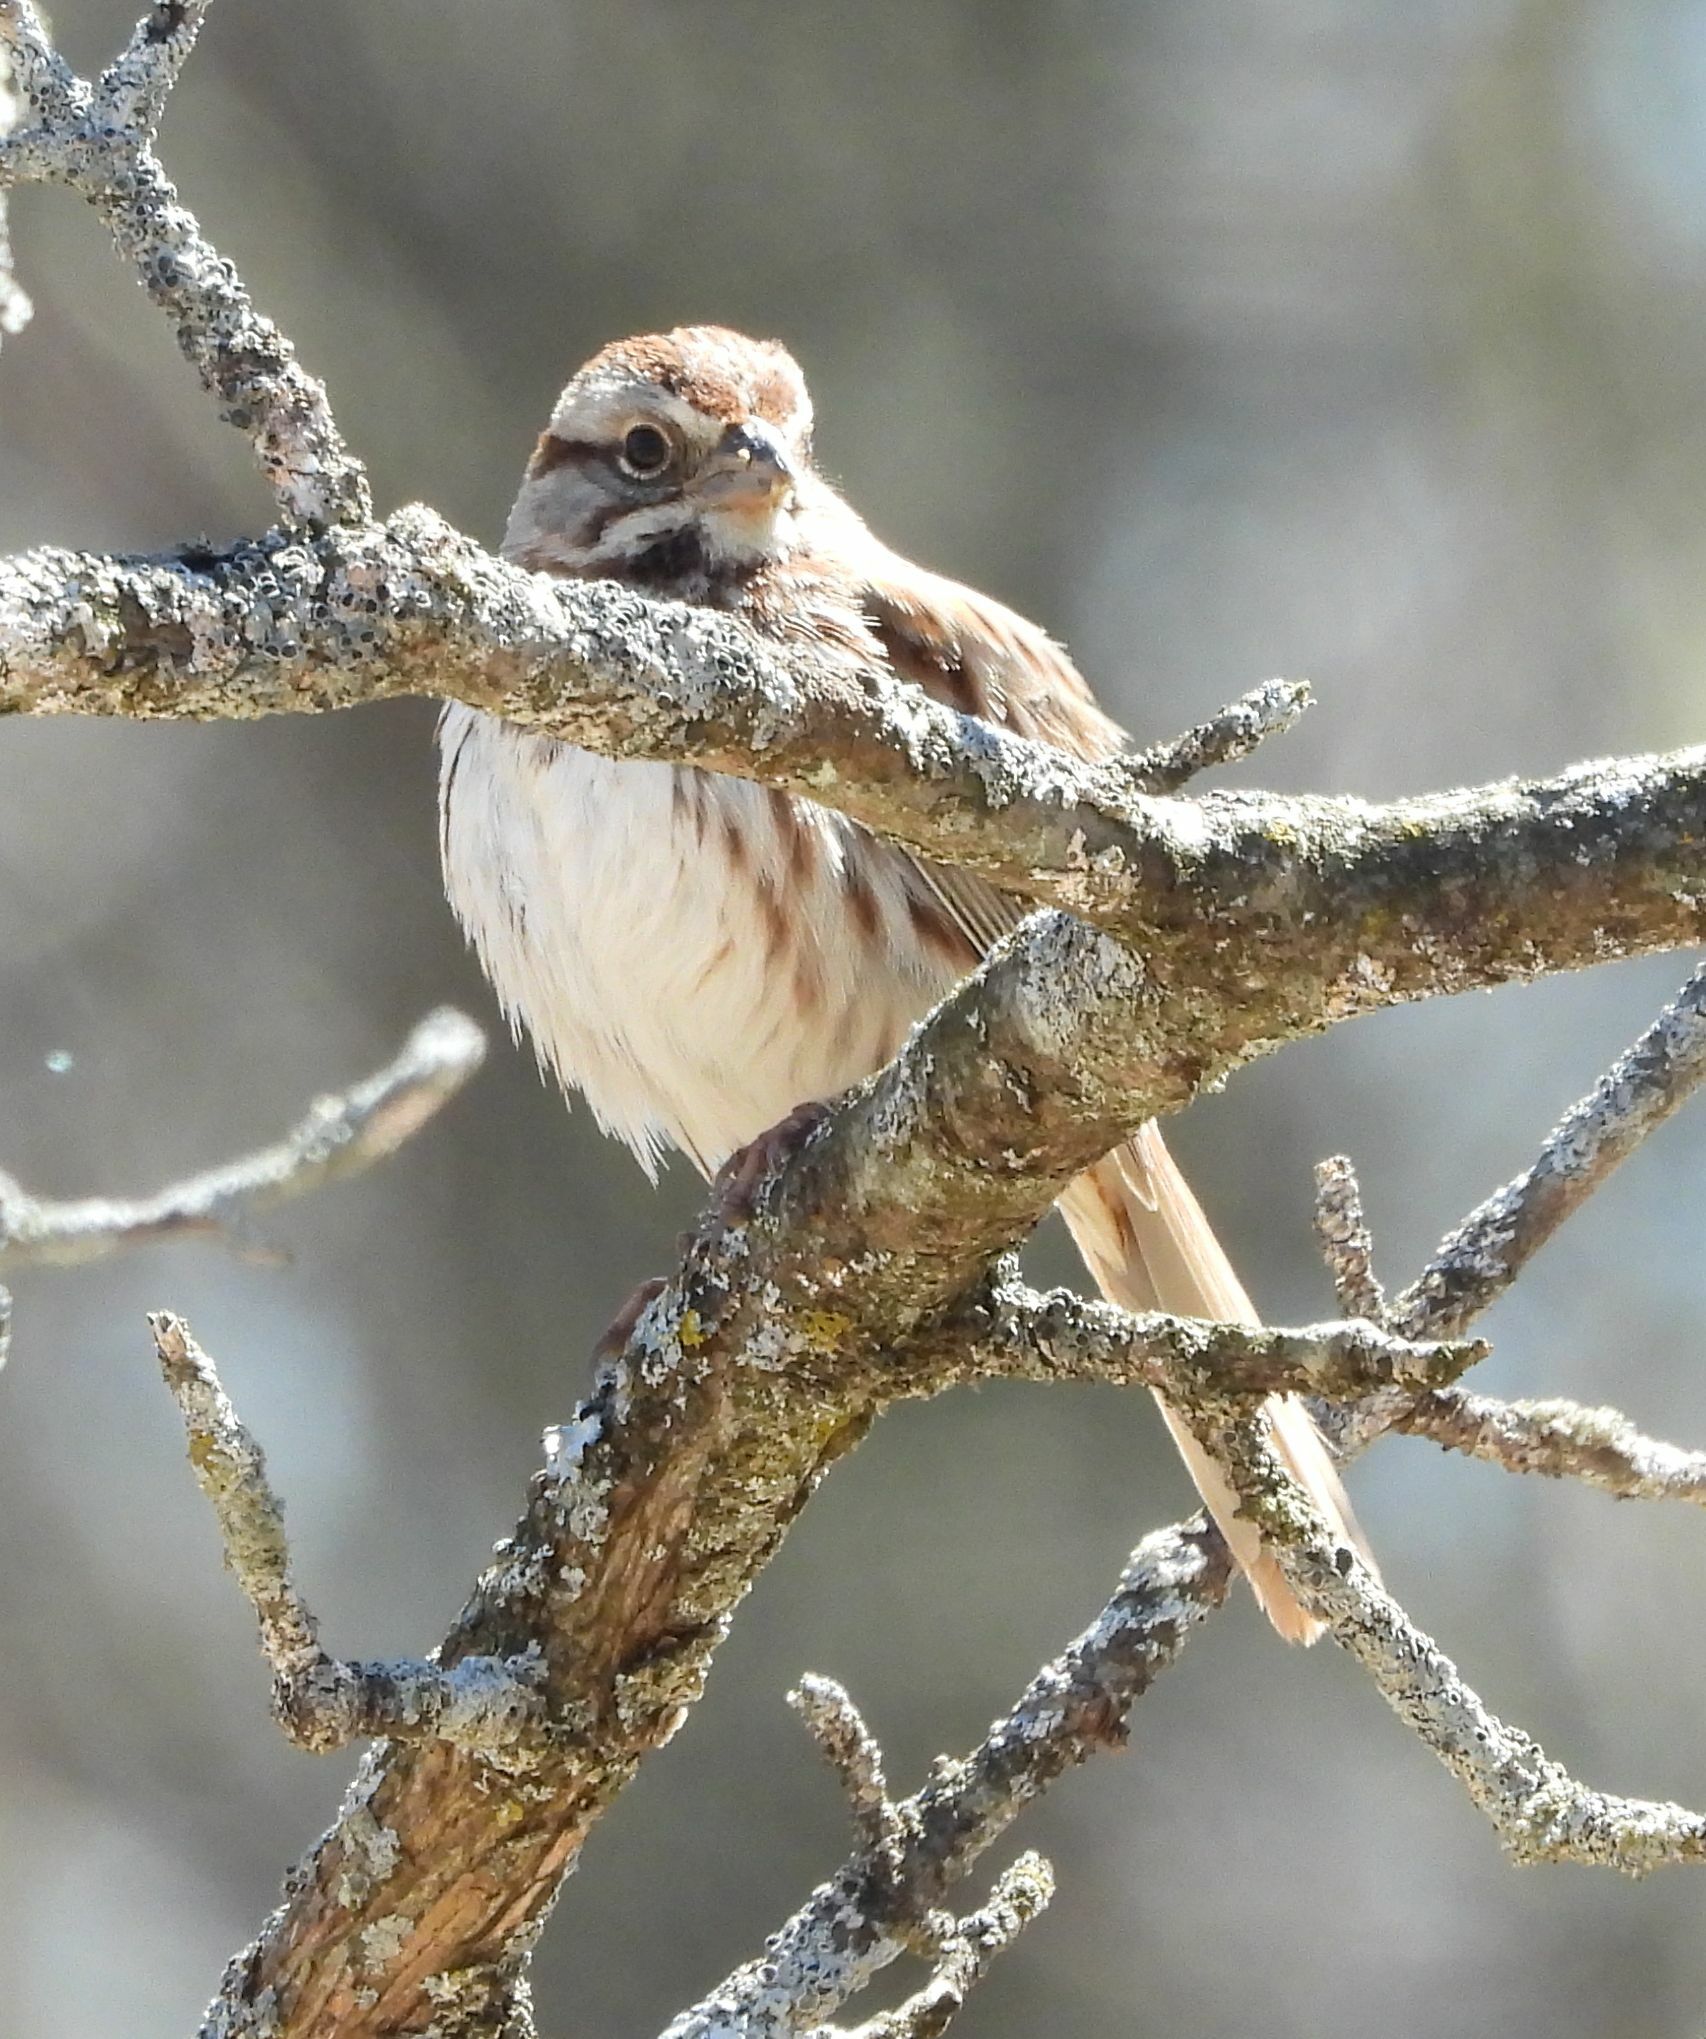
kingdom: Animalia
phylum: Chordata
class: Aves
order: Passeriformes
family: Passerellidae
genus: Melospiza
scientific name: Melospiza melodia
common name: Song sparrow
